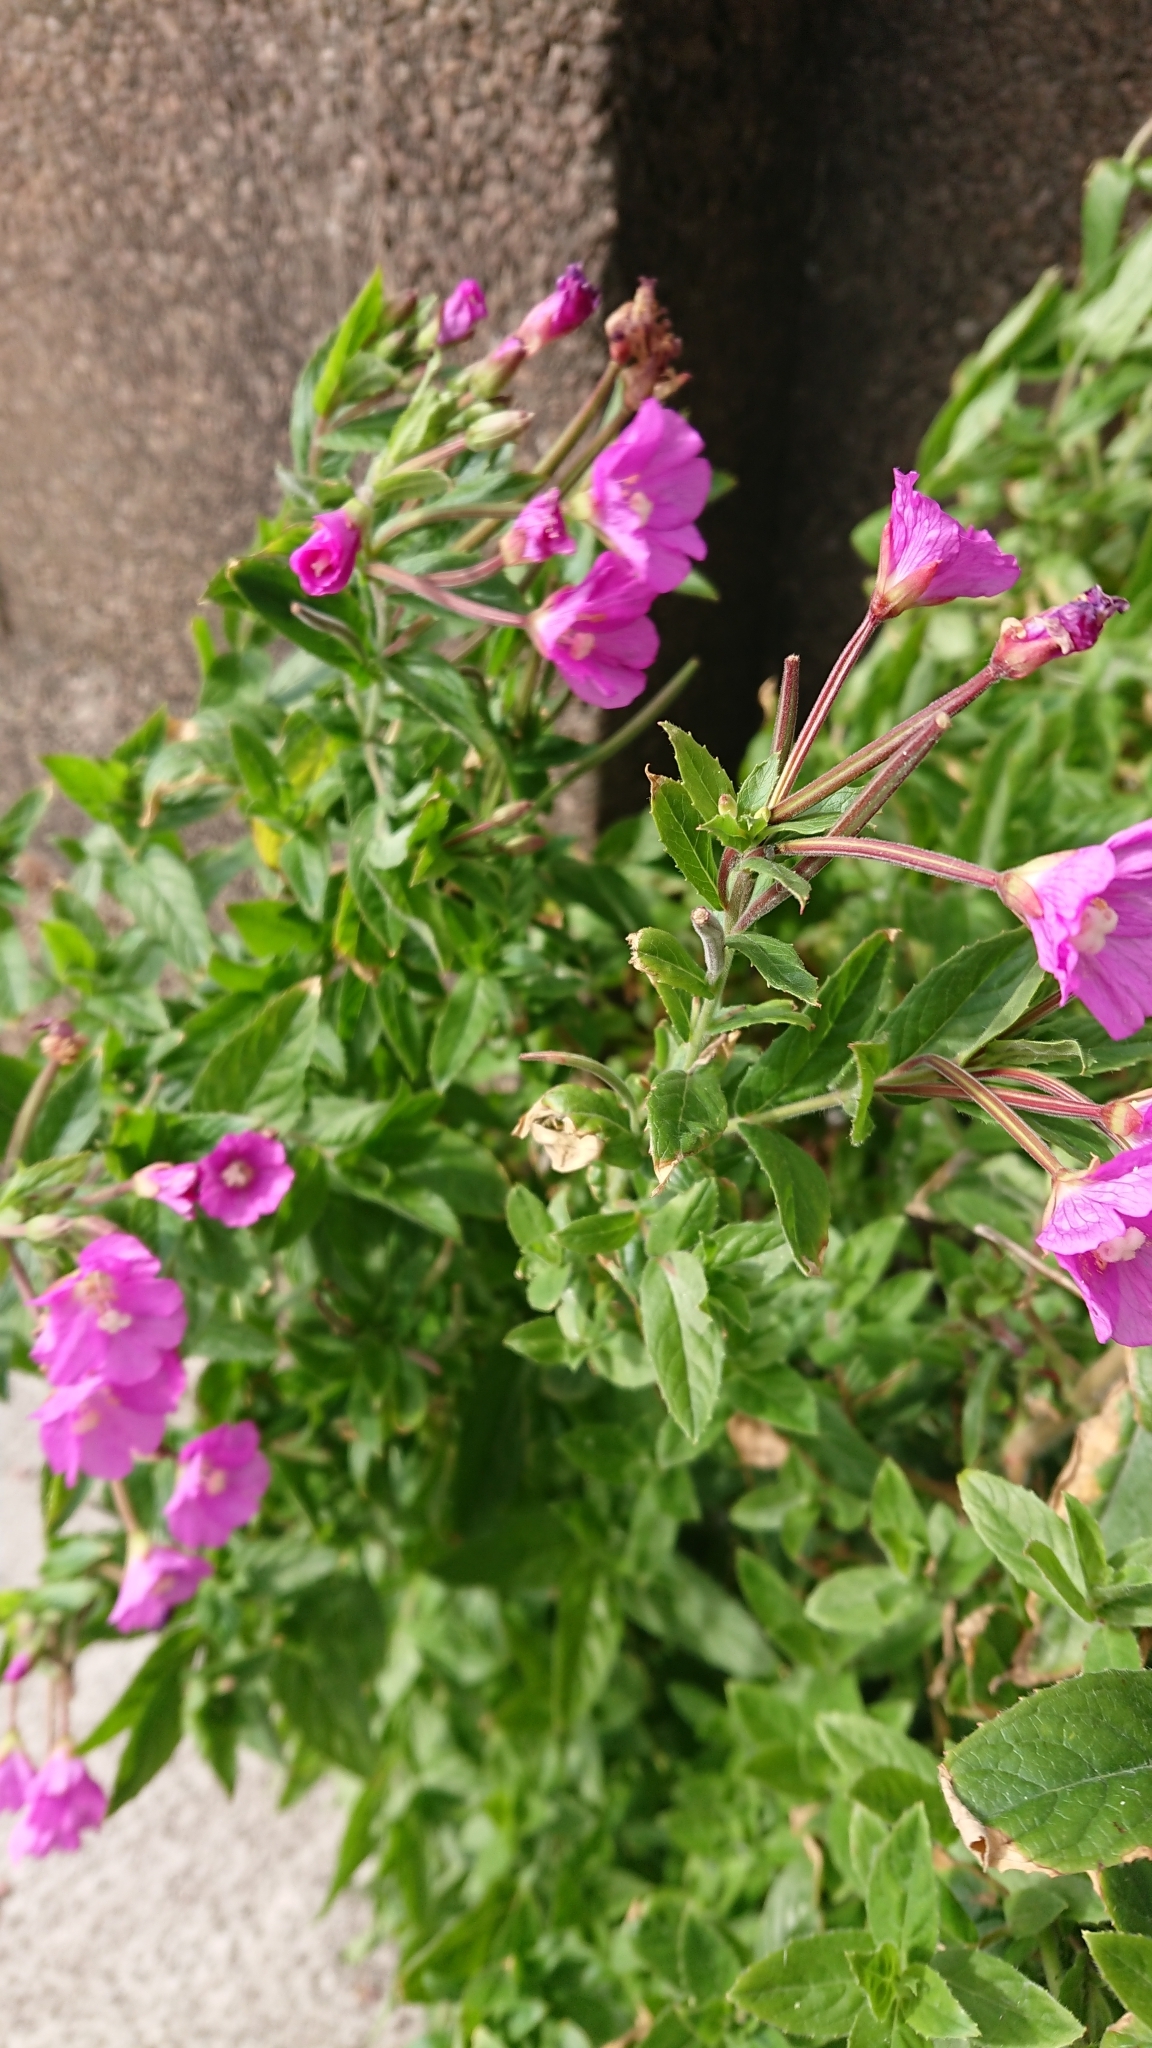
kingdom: Plantae
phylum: Tracheophyta
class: Magnoliopsida
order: Myrtales
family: Onagraceae
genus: Epilobium
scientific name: Epilobium hirsutum
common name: Great willowherb
